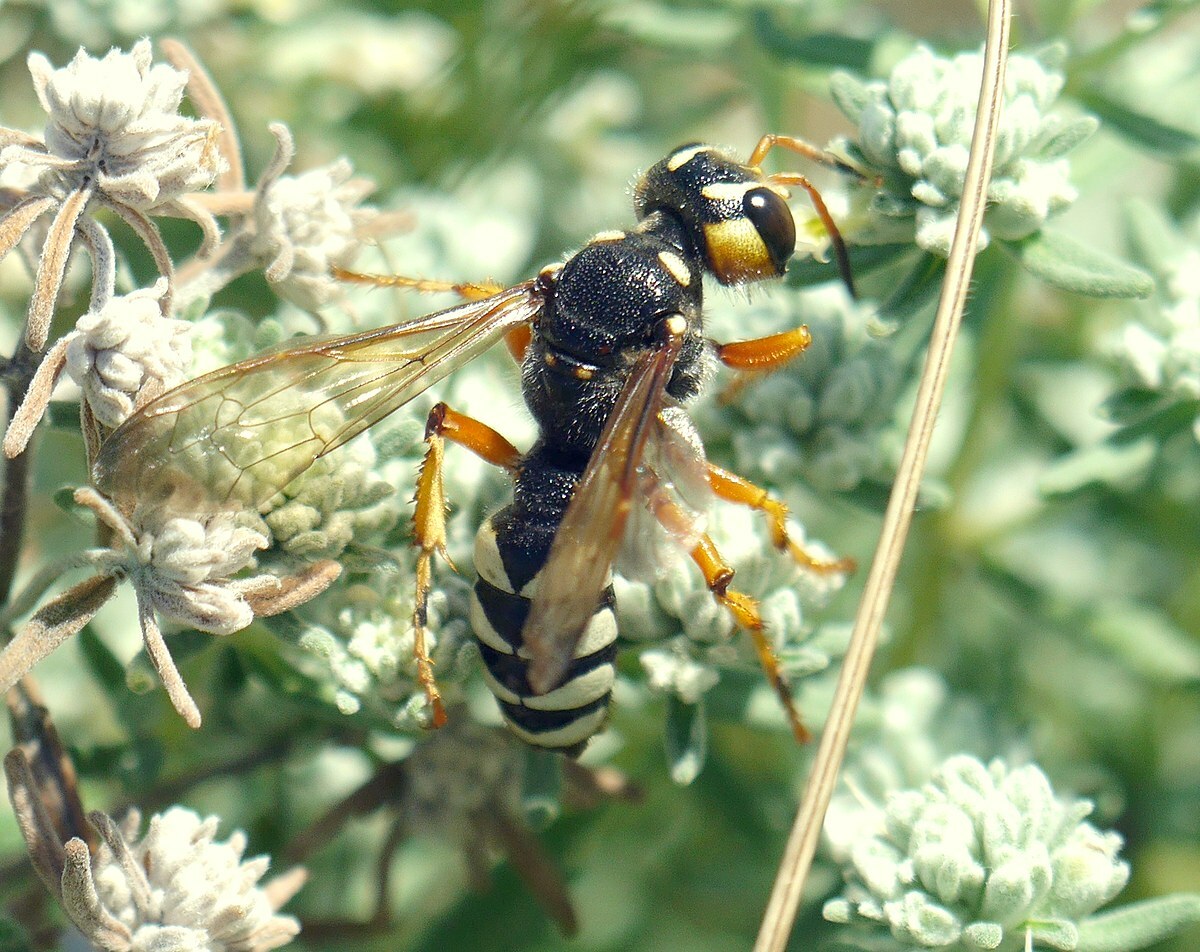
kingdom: Animalia
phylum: Arthropoda
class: Insecta
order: Hymenoptera
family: Crabronidae
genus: Cerceris
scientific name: Cerceris tuberculata
